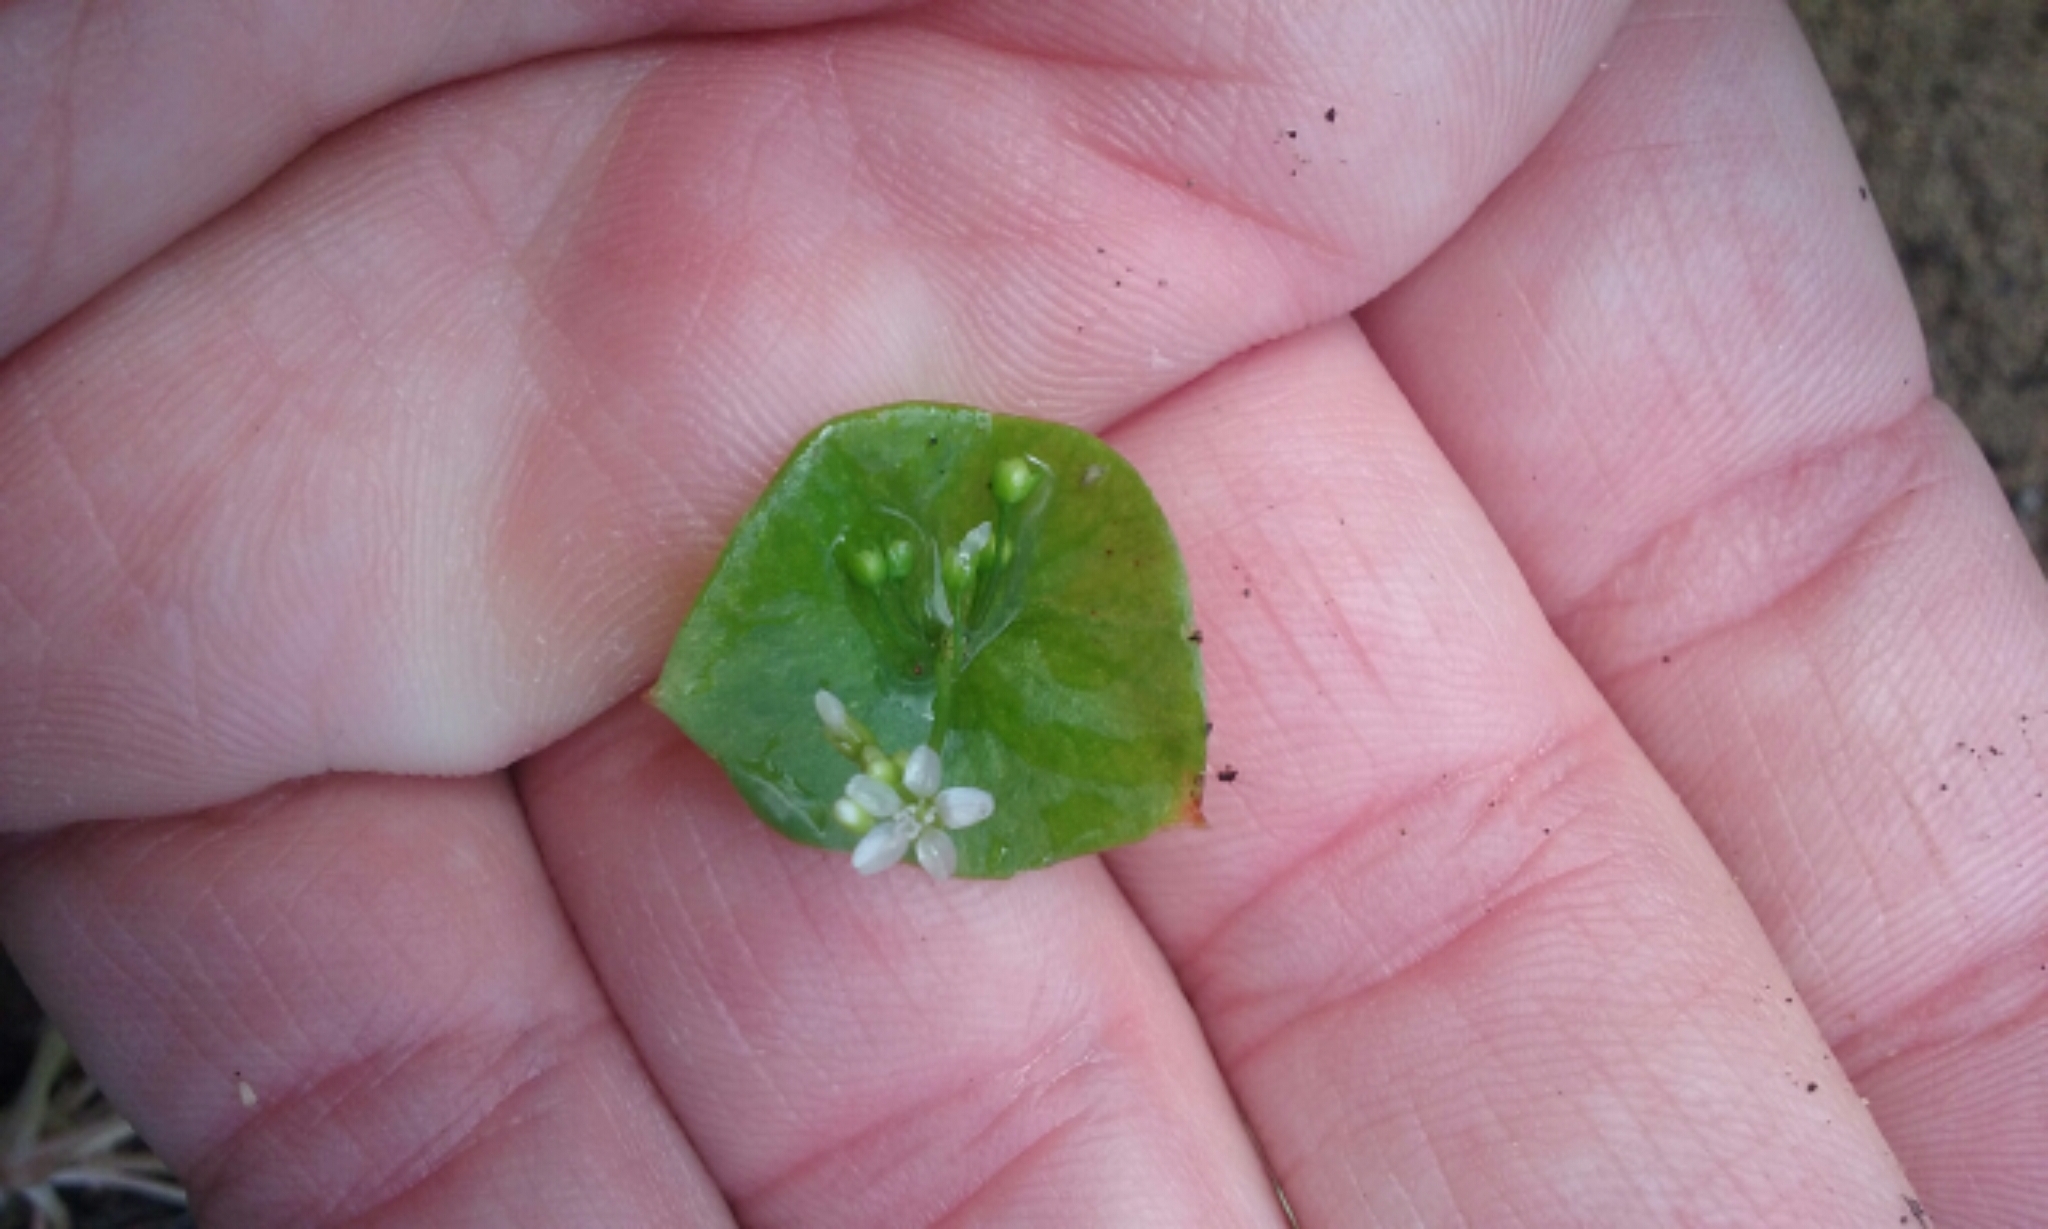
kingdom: Plantae
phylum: Tracheophyta
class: Magnoliopsida
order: Caryophyllales
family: Montiaceae
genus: Claytonia
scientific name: Claytonia parviflora
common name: Indian-lettuce
